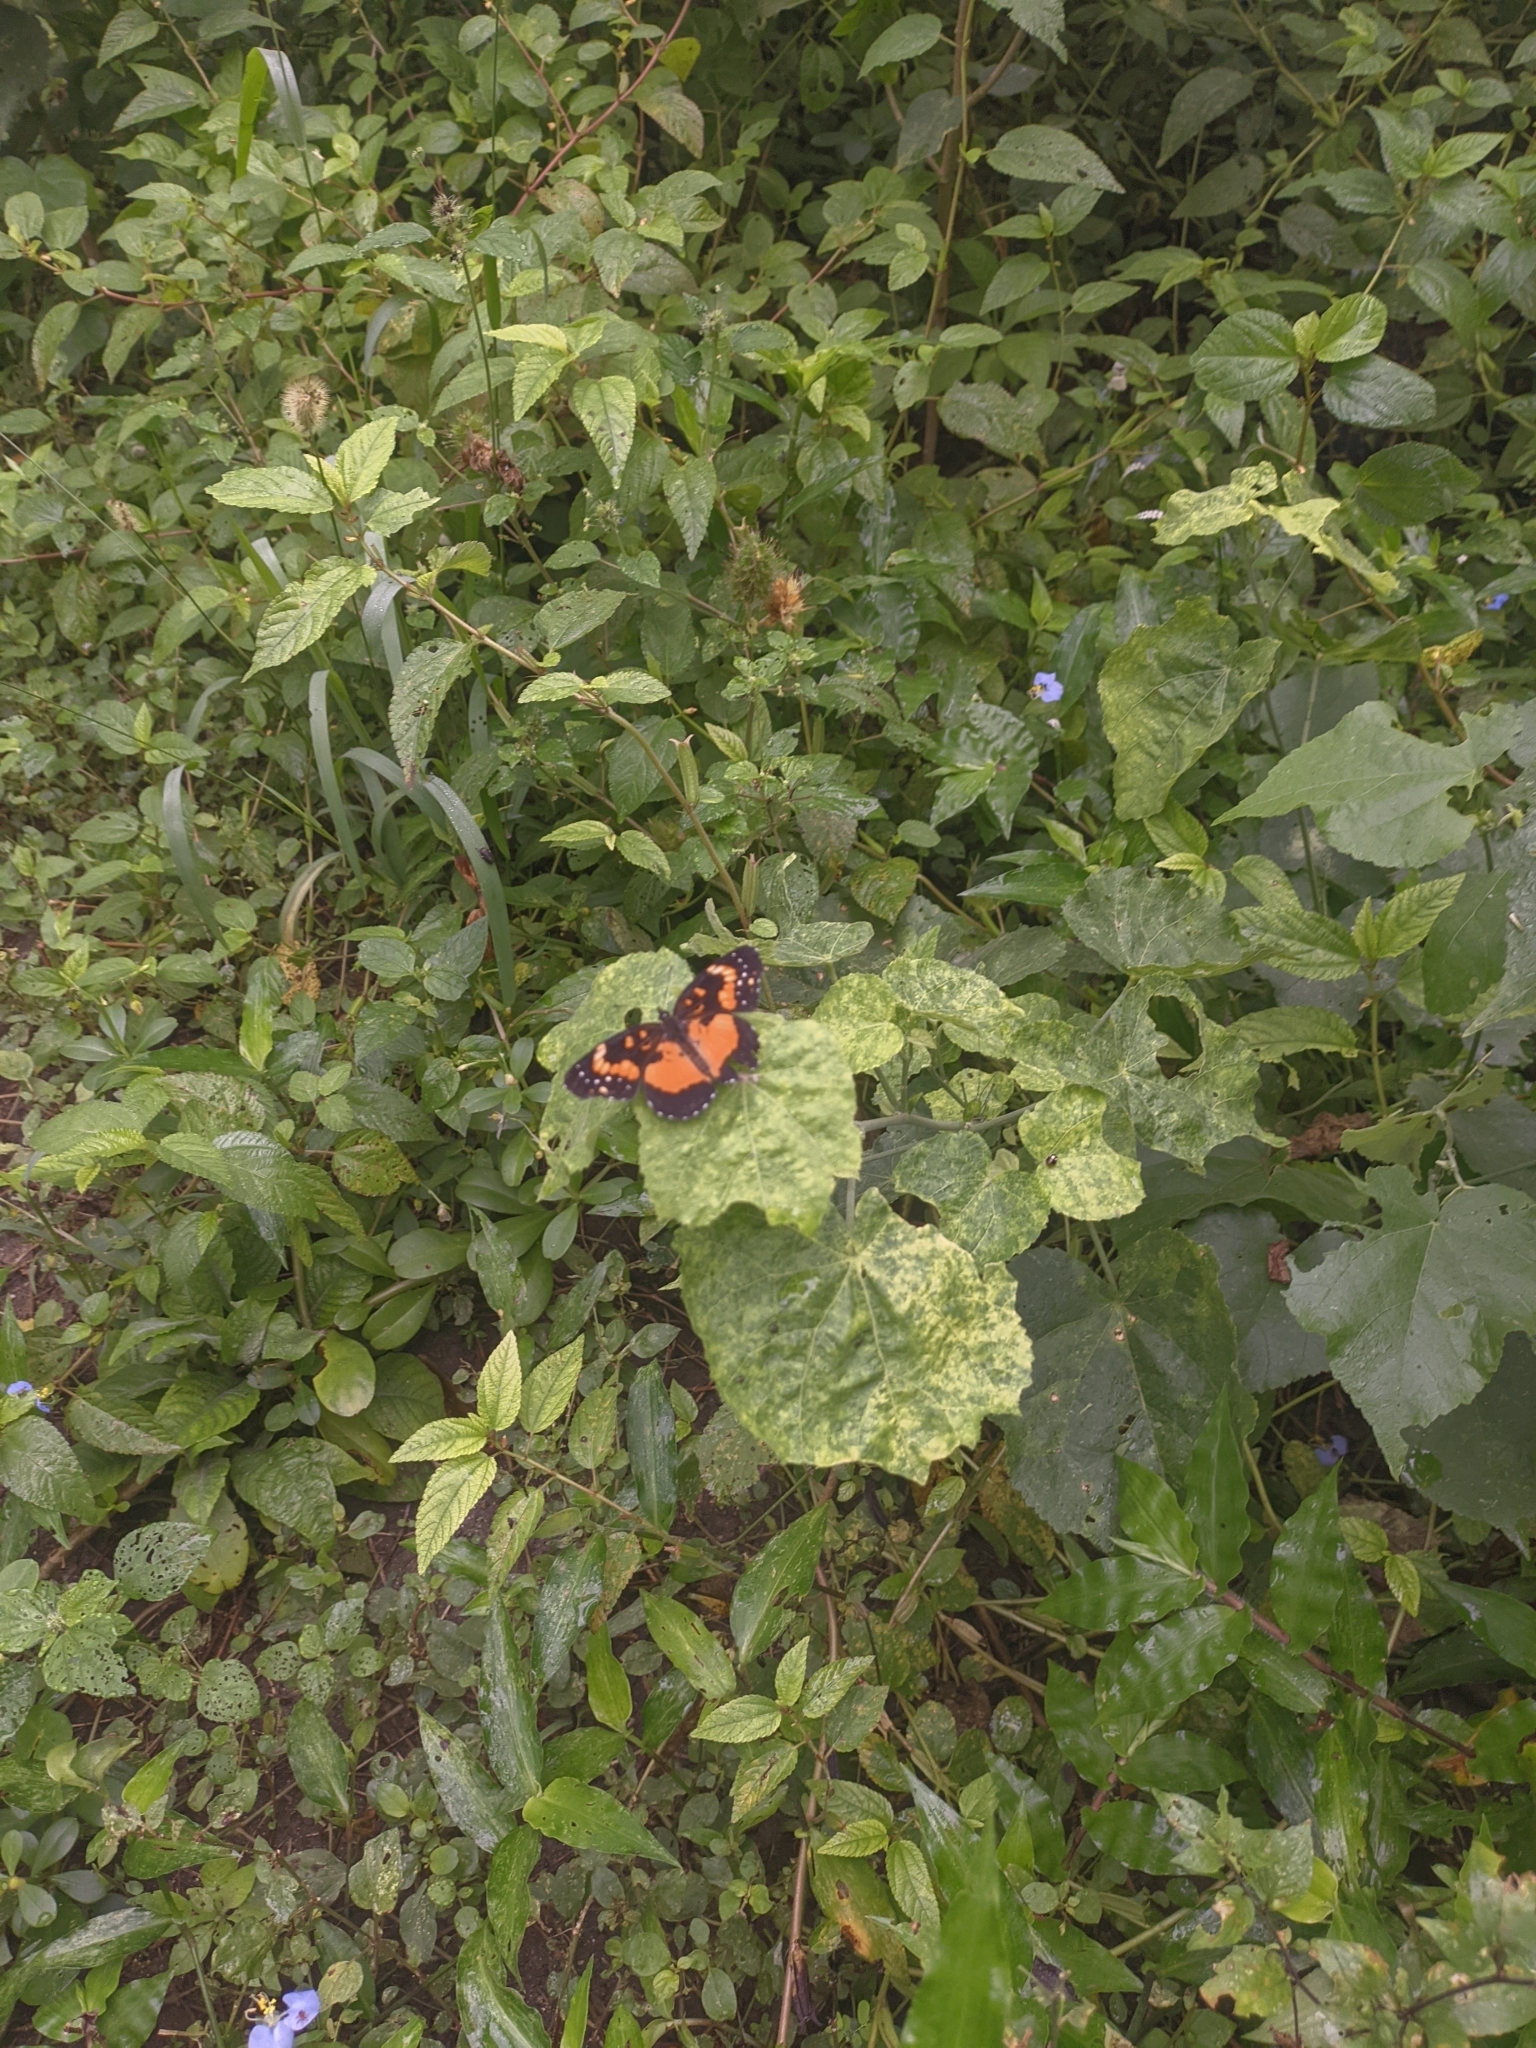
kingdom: Animalia
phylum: Arthropoda
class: Insecta
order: Lepidoptera
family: Nymphalidae
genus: Chlosyne
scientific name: Chlosyne lacinia
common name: Bordered patch
